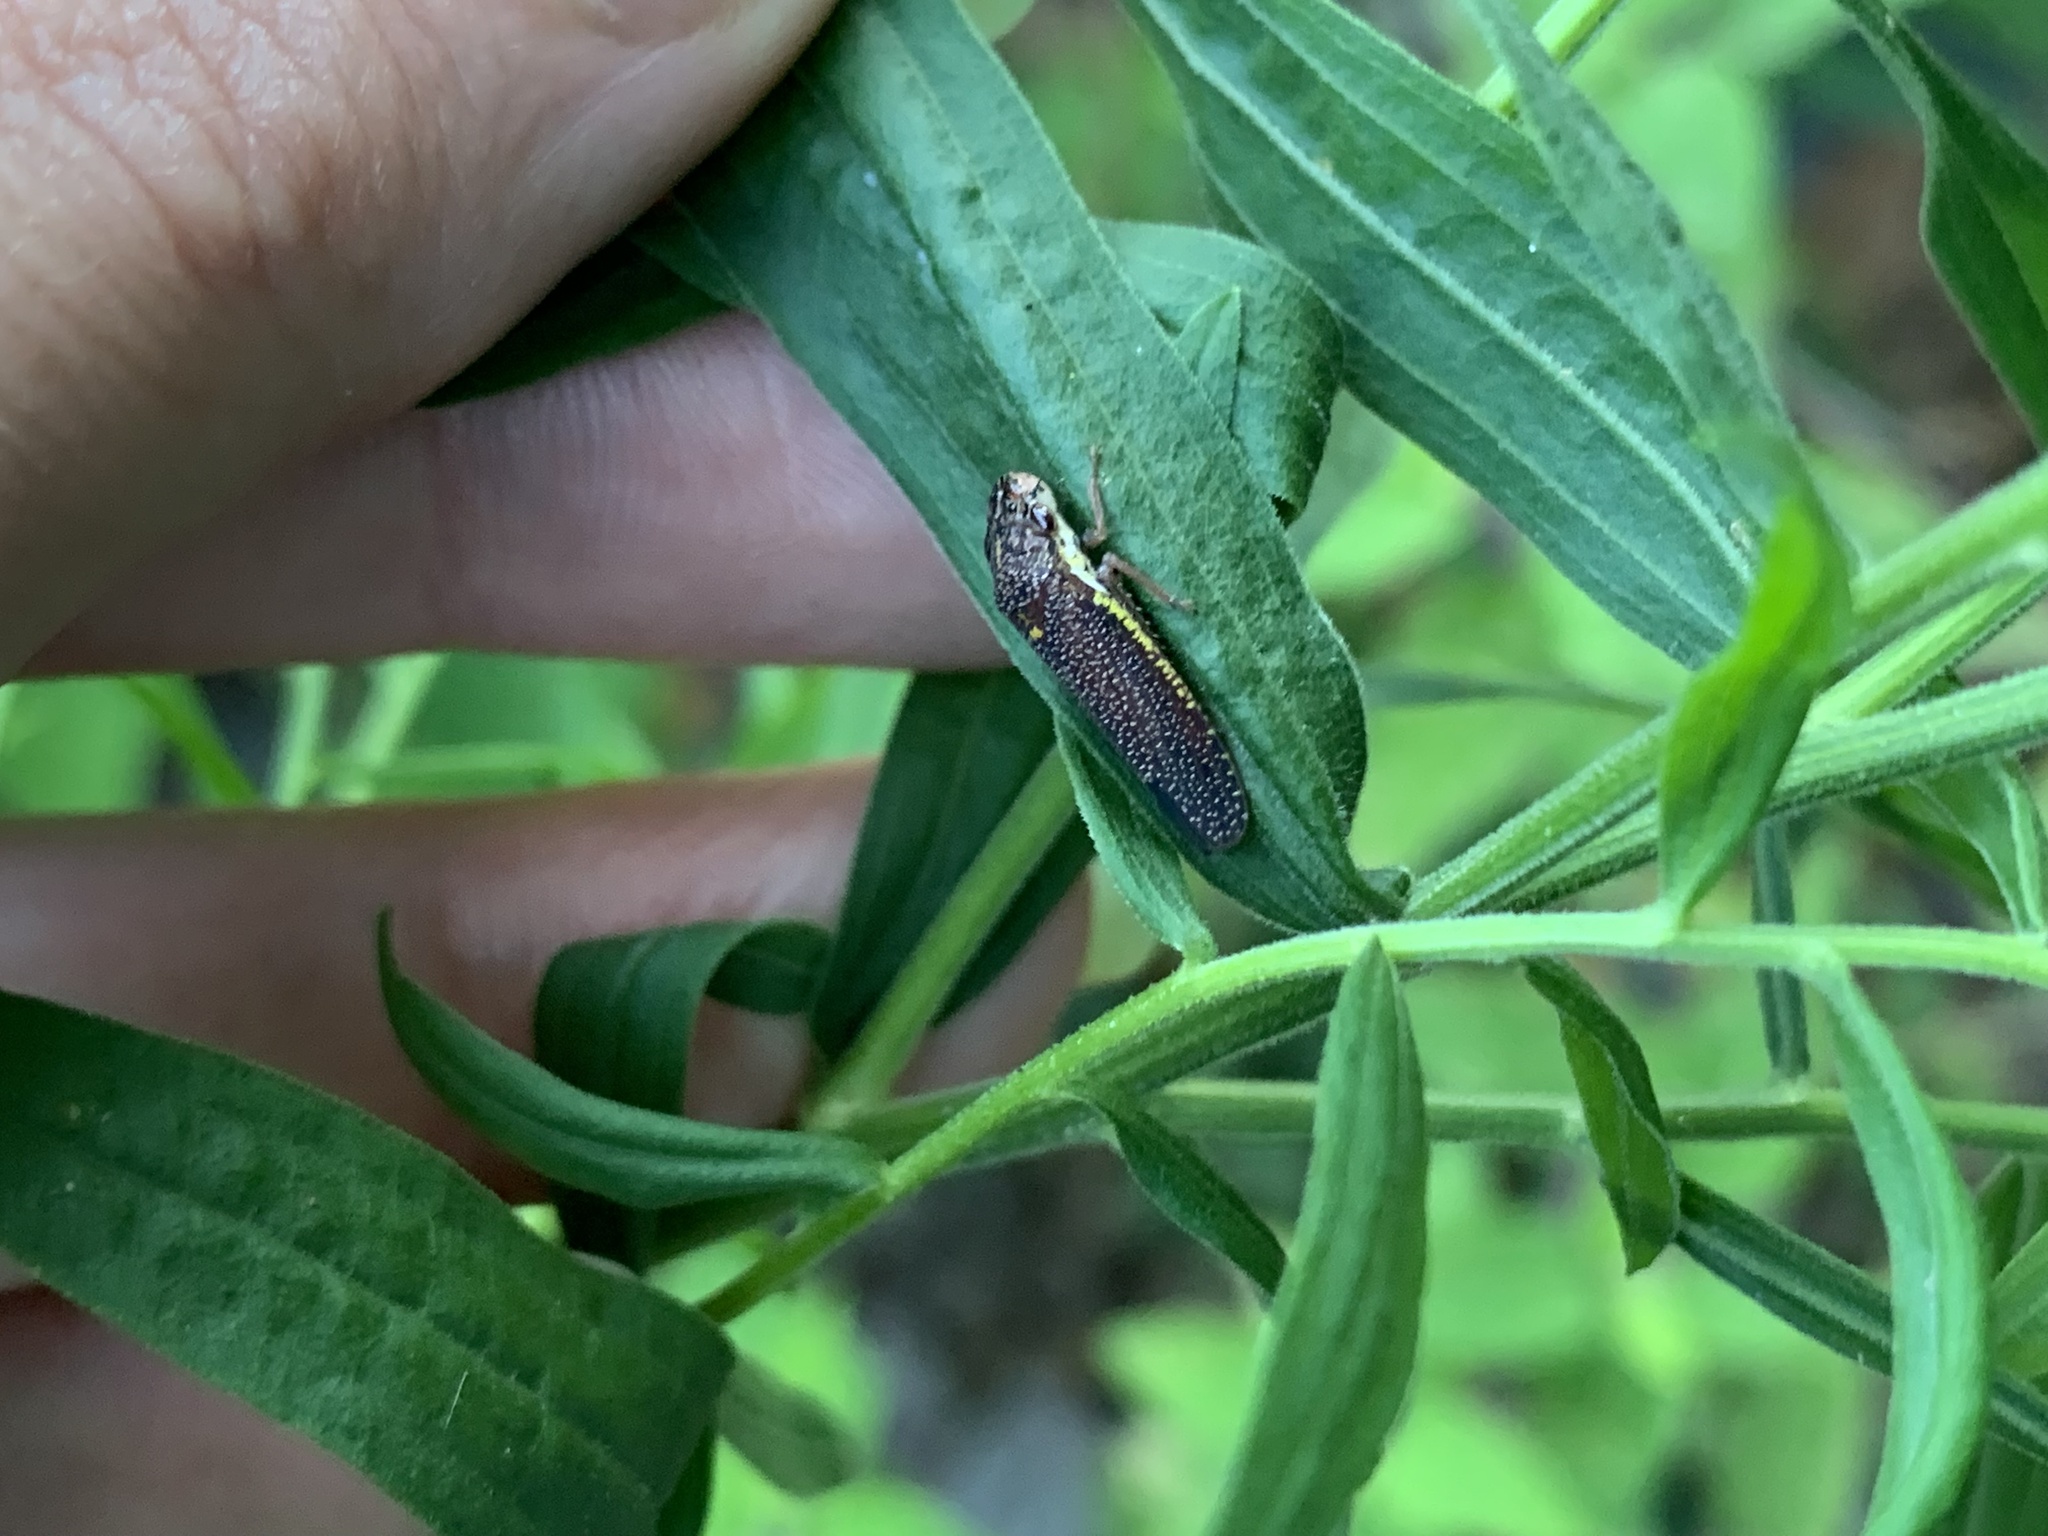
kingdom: Animalia
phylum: Arthropoda
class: Insecta
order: Hemiptera
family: Cicadellidae
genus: Paraulacizes
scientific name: Paraulacizes irrorata
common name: Speckled sharpshooter
